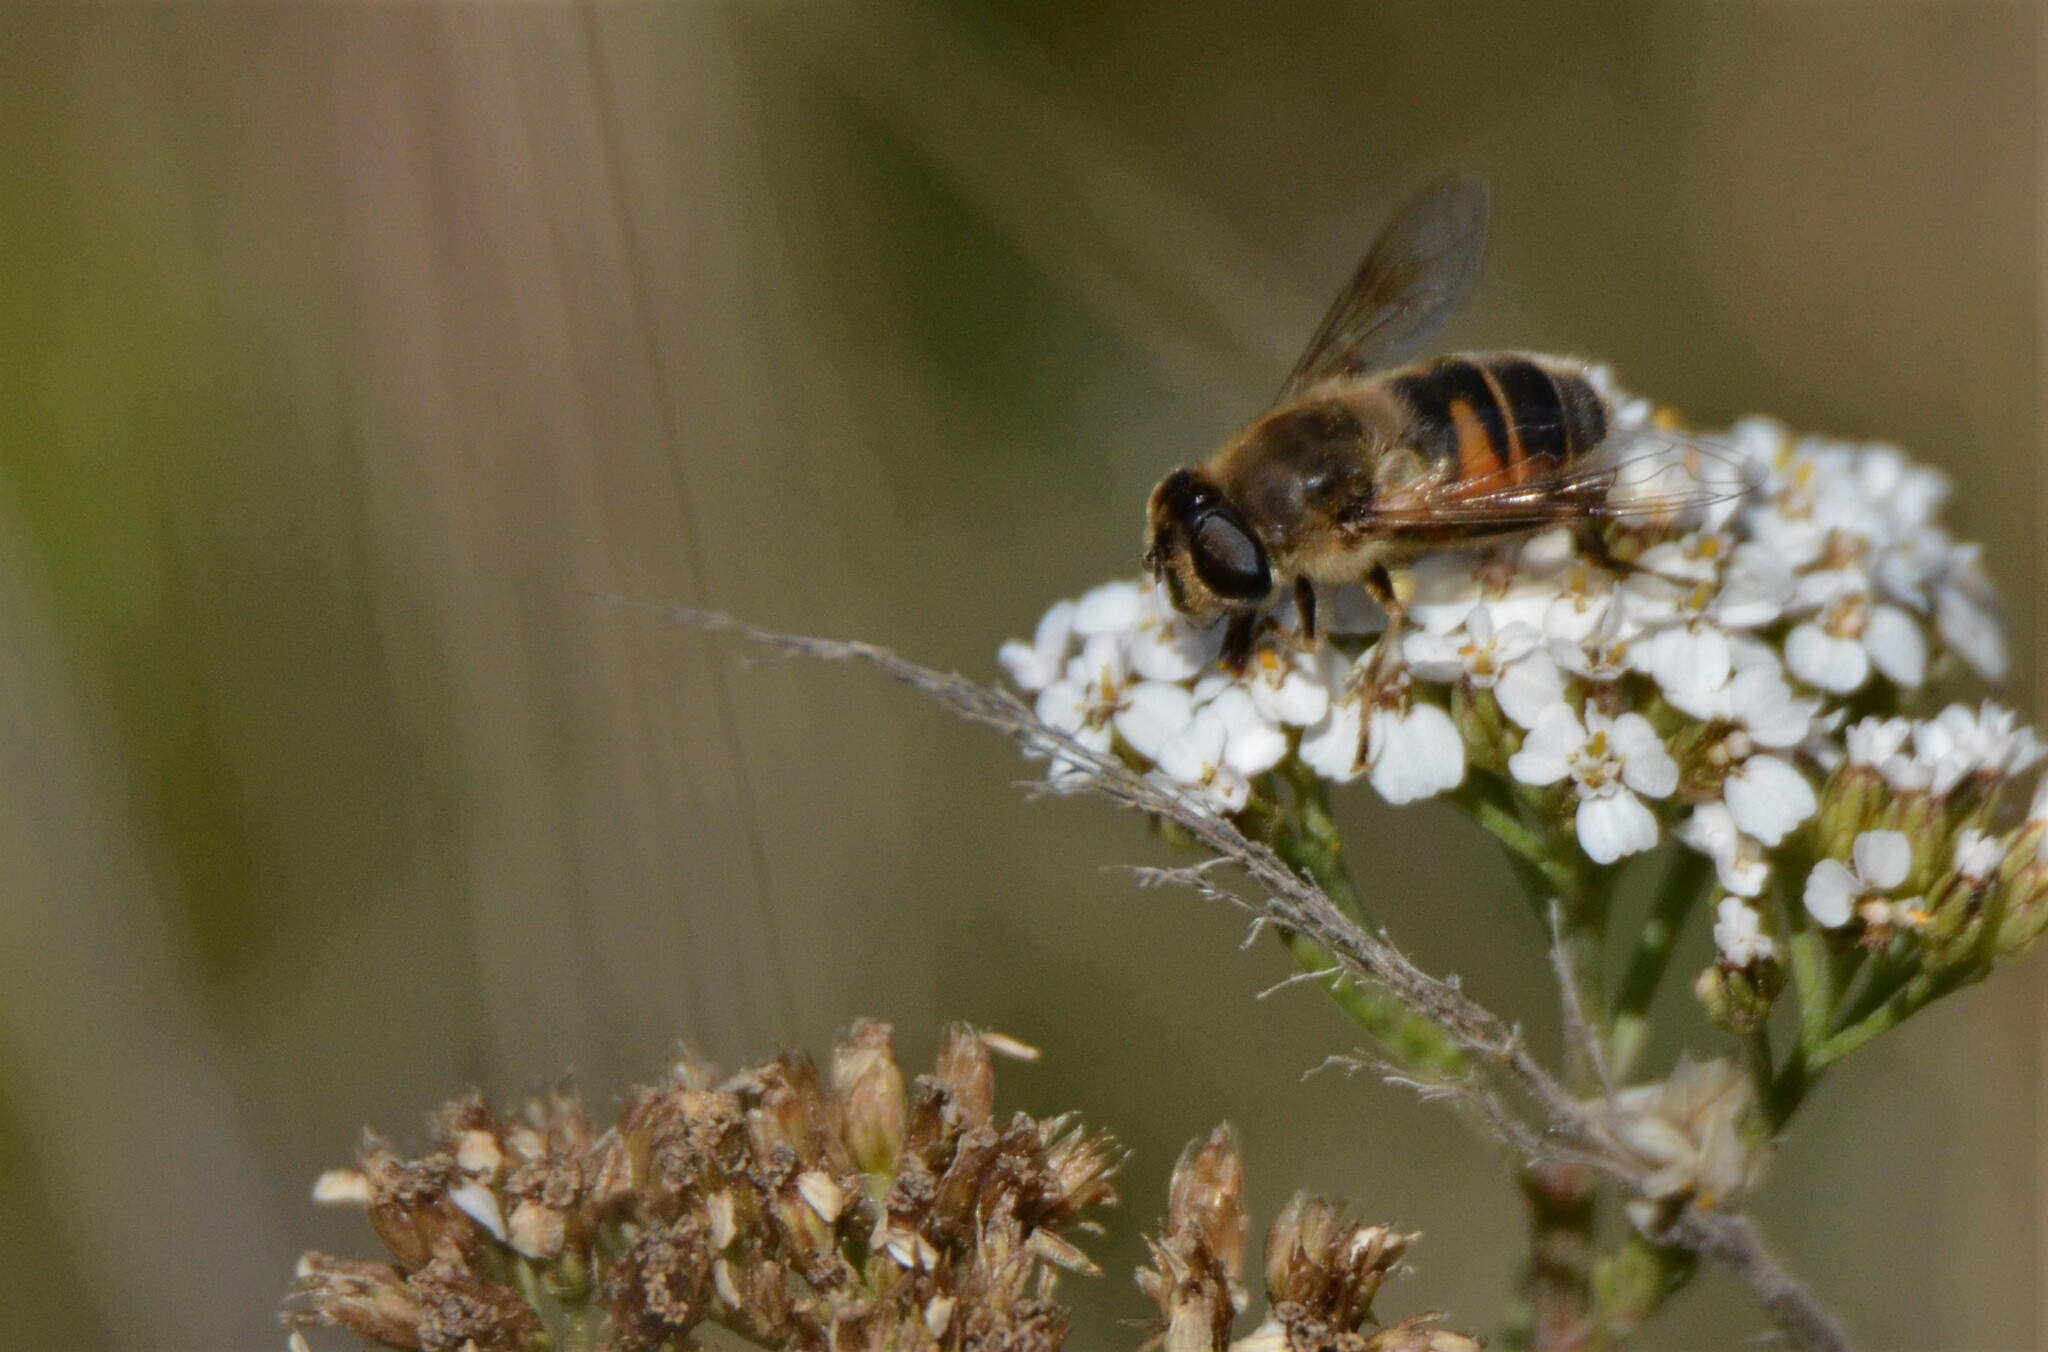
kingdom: Animalia
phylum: Arthropoda
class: Insecta
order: Diptera
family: Syrphidae
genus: Eristalis
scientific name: Eristalis tenax
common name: Drone fly
